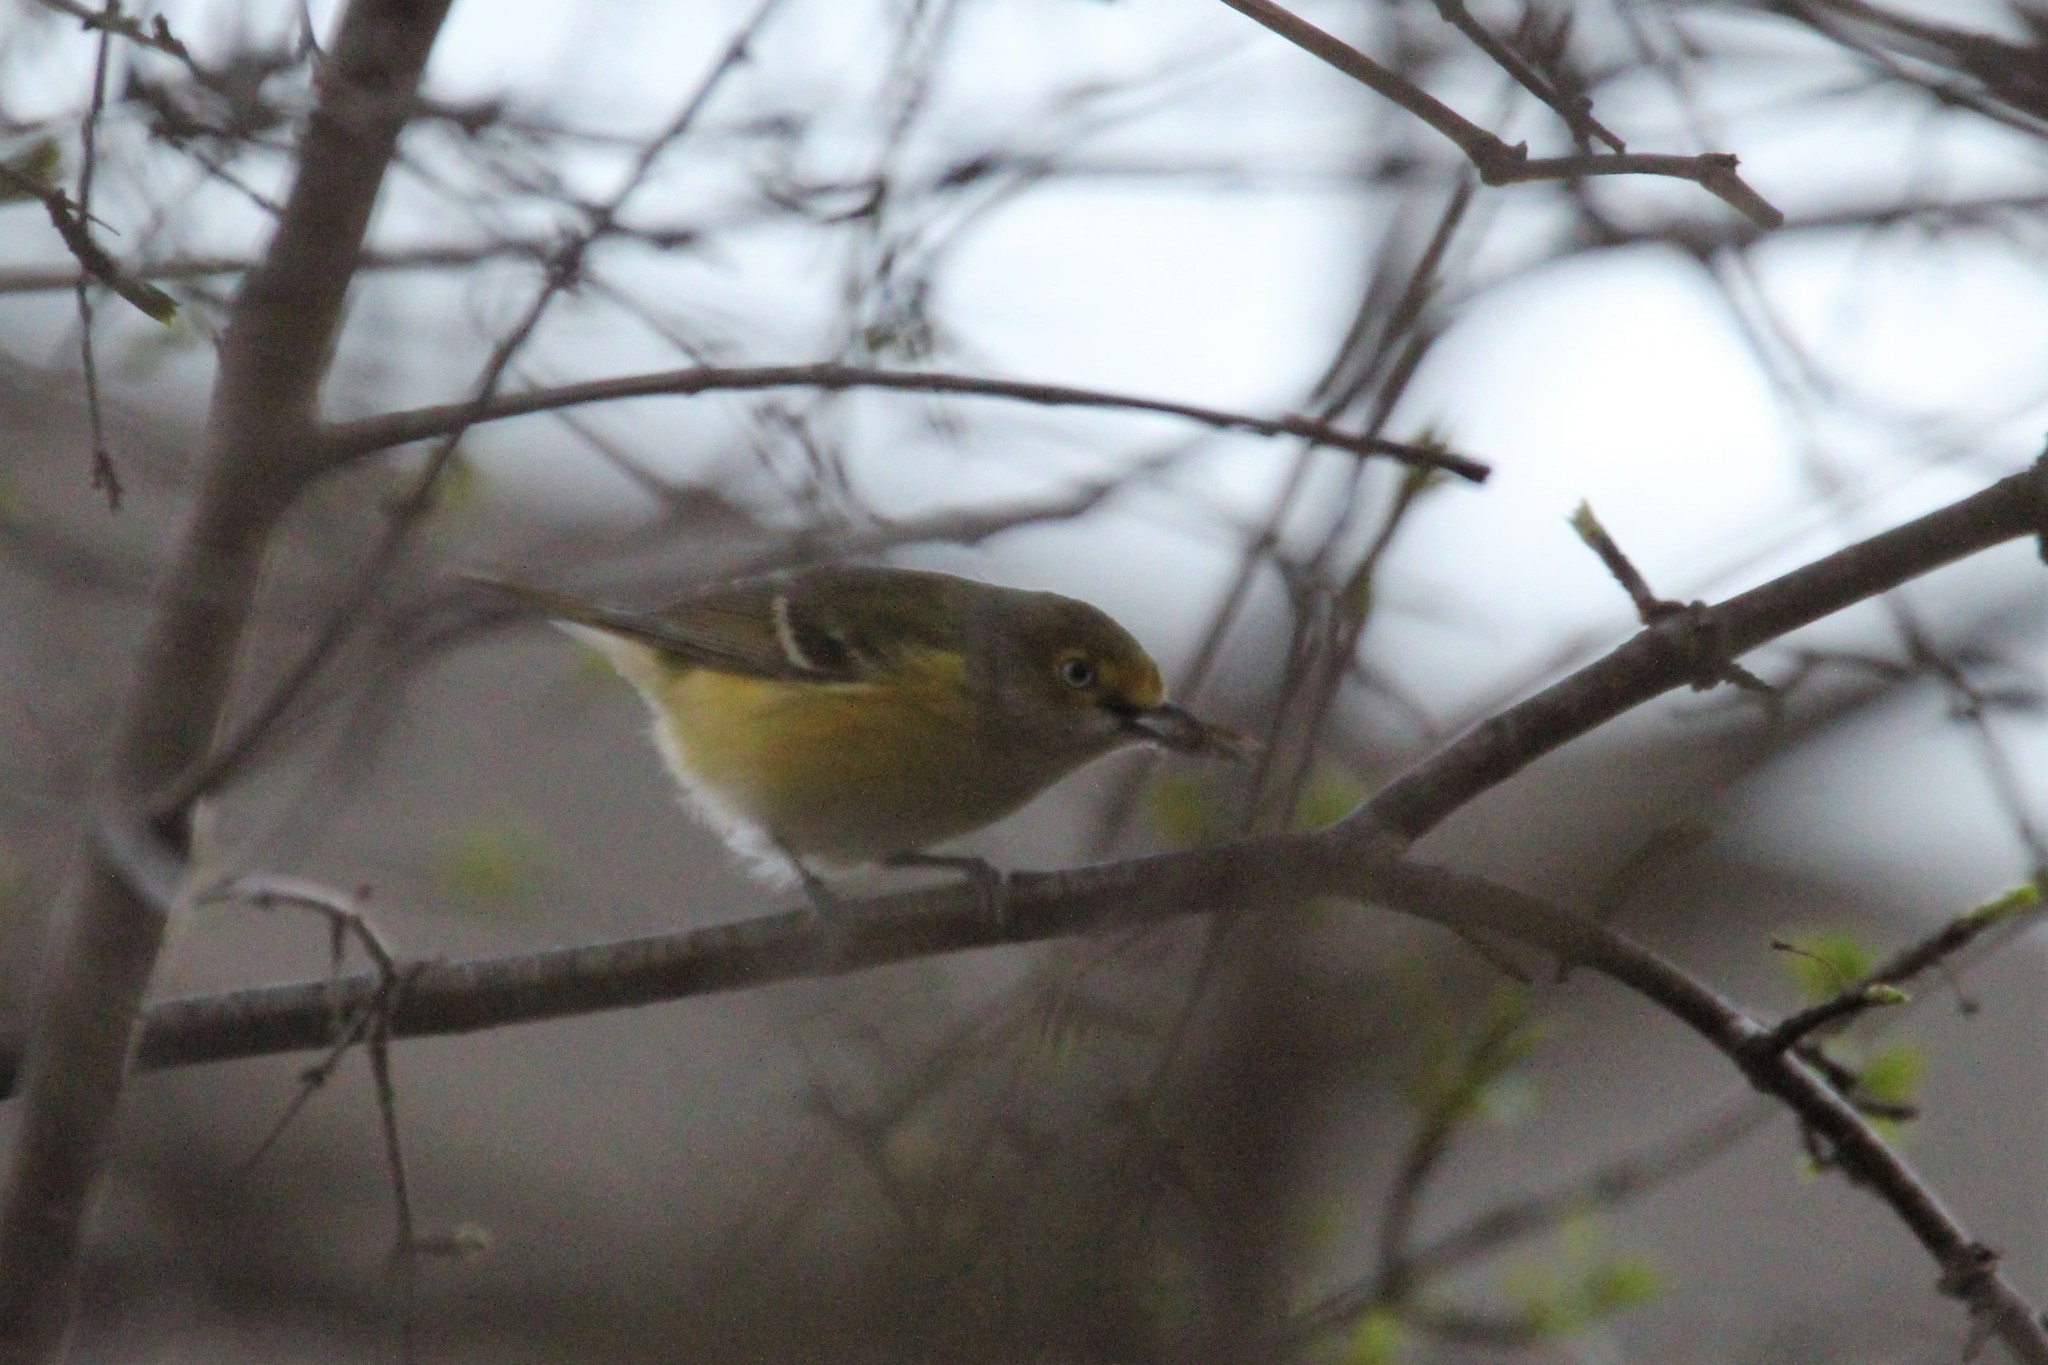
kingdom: Animalia
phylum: Chordata
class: Aves
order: Passeriformes
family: Vireonidae
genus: Vireo
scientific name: Vireo griseus
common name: White-eyed vireo
